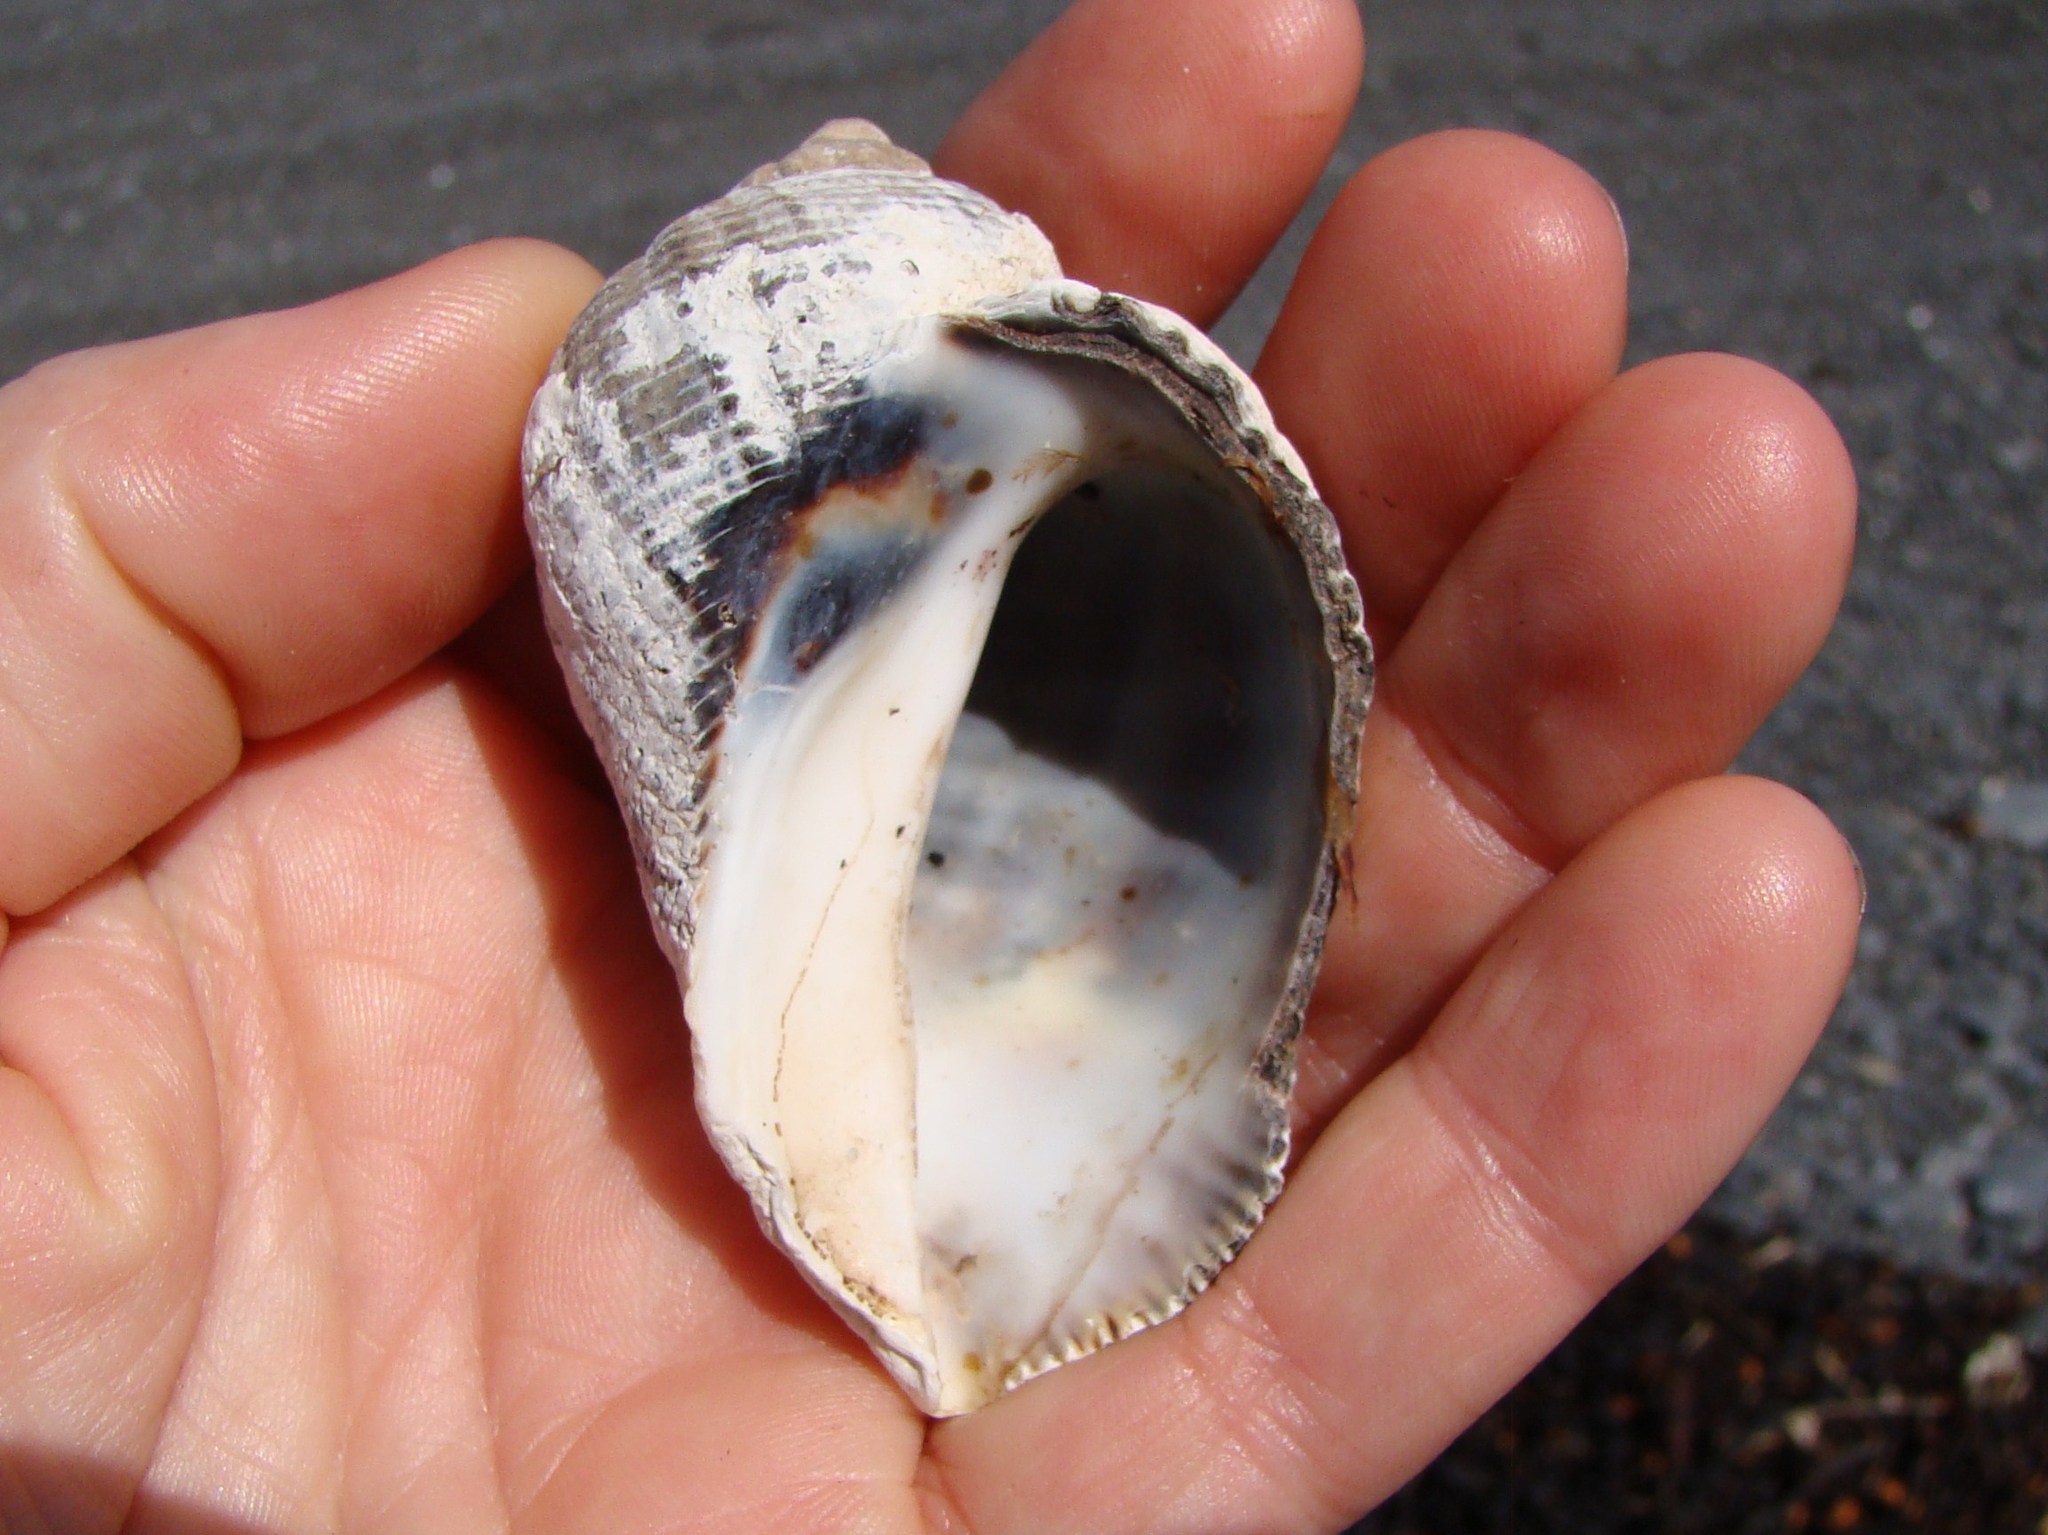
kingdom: Animalia
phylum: Mollusca
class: Gastropoda
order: Neogastropoda
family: Muricidae
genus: Haustrum
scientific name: Haustrum haustorium
